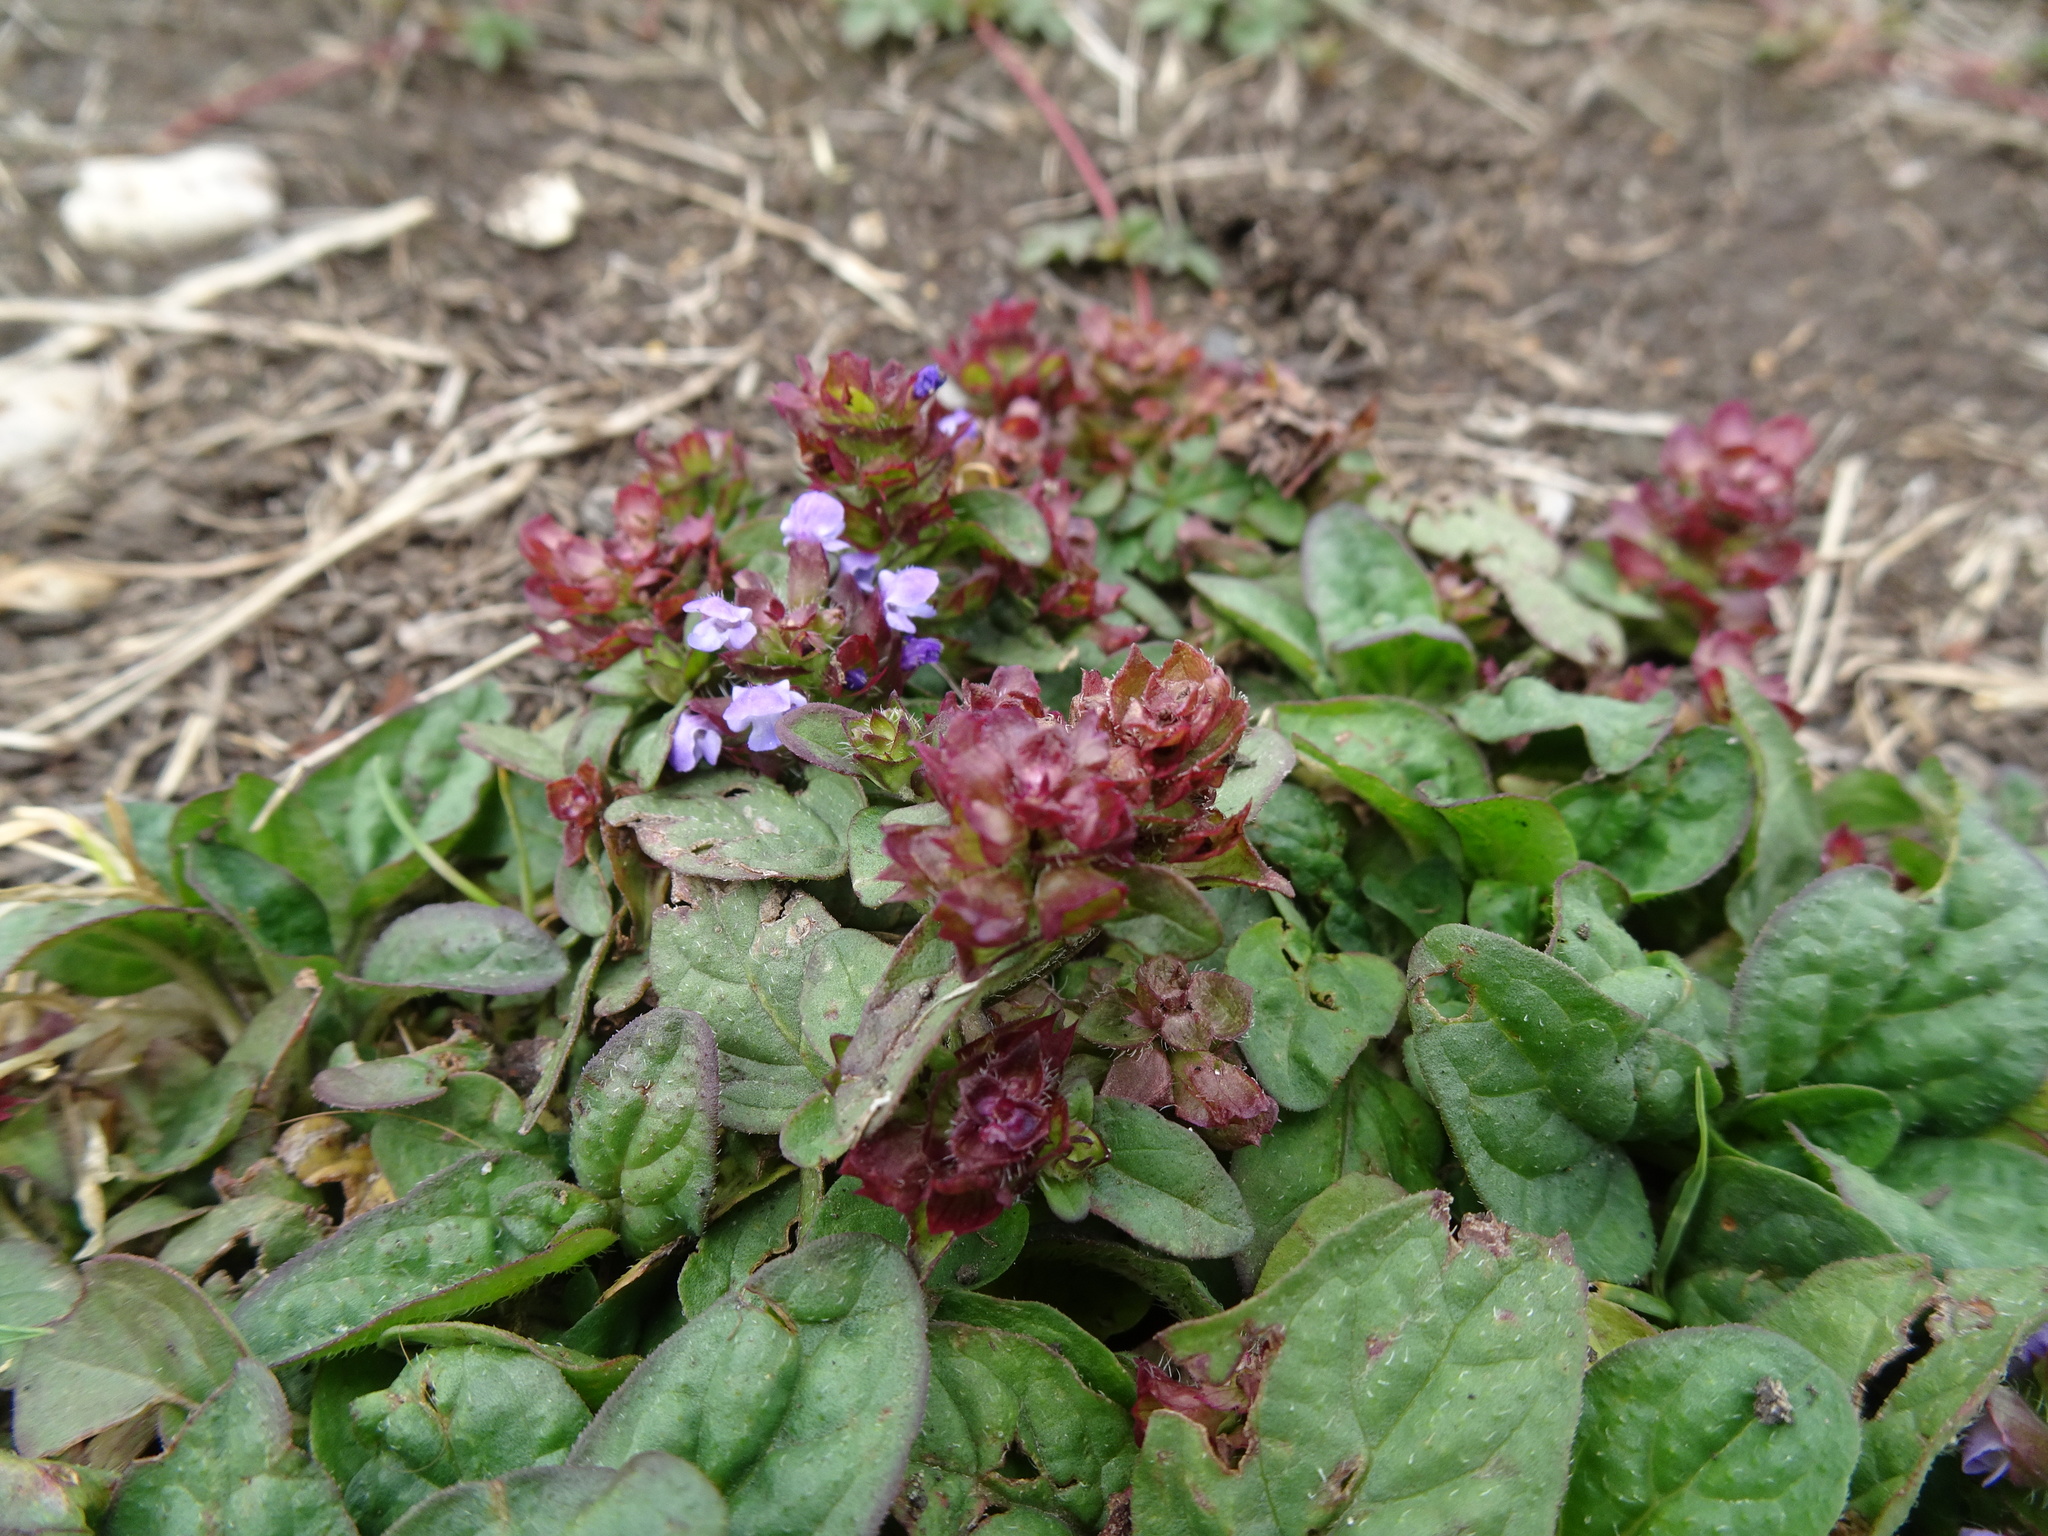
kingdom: Plantae
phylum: Tracheophyta
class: Magnoliopsida
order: Lamiales
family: Lamiaceae
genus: Prunella
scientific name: Prunella vulgaris
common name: Heal-all
